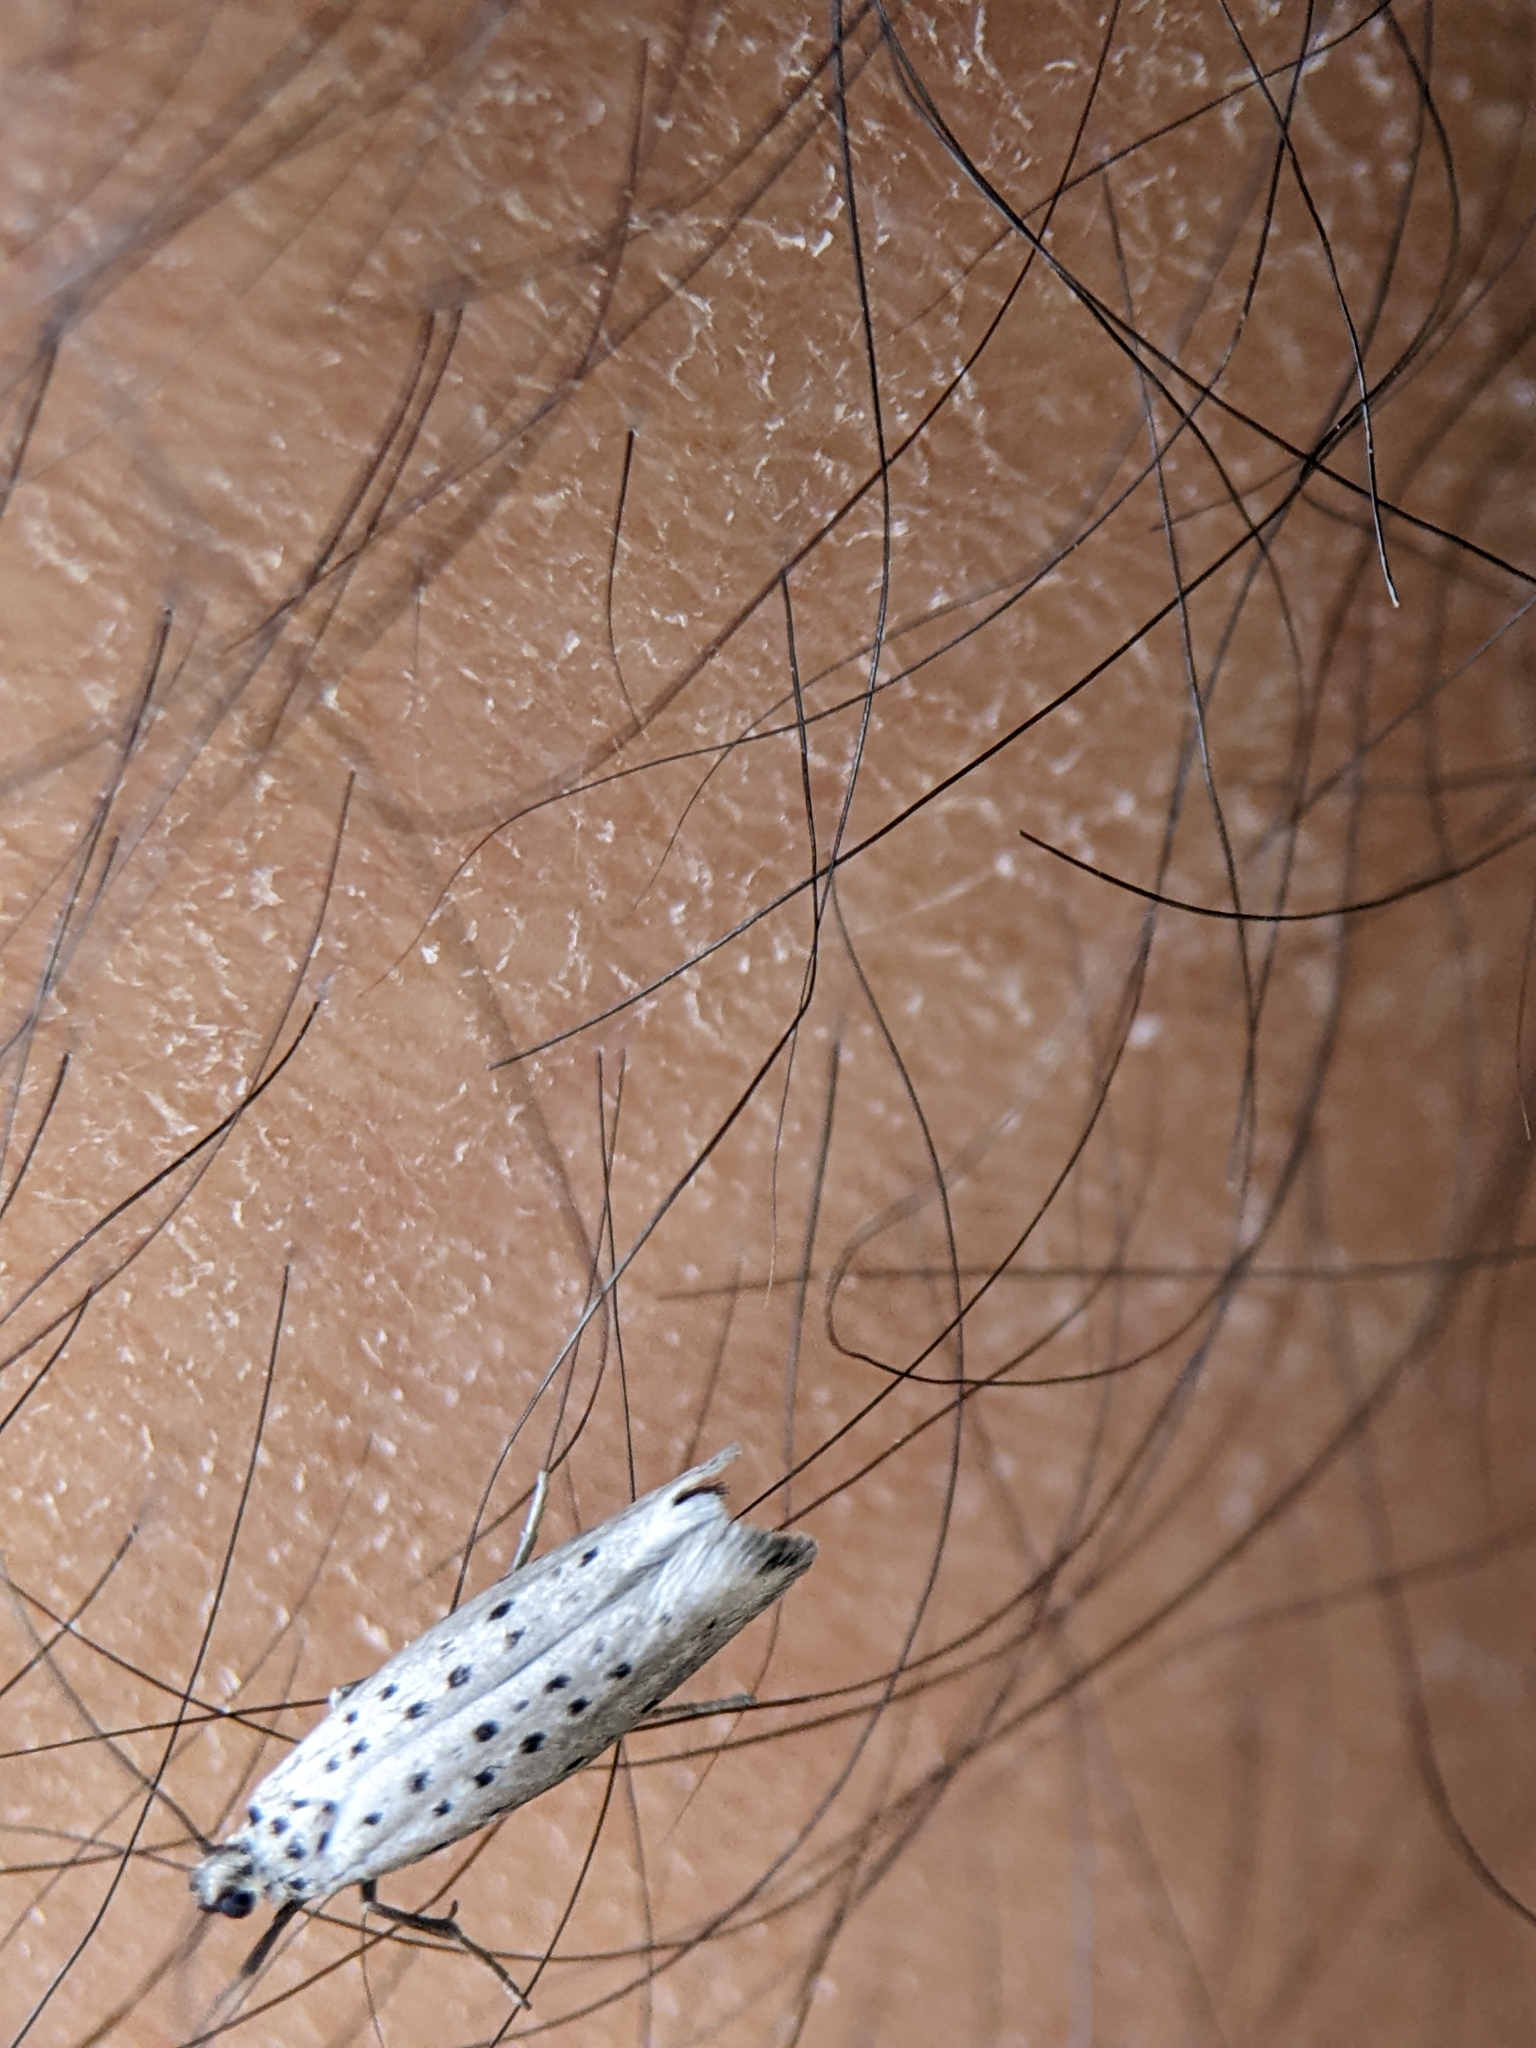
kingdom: Animalia
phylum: Arthropoda
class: Insecta
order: Lepidoptera
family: Yponomeutidae
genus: Yponomeuta
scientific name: Yponomeuta vigintipunctata
